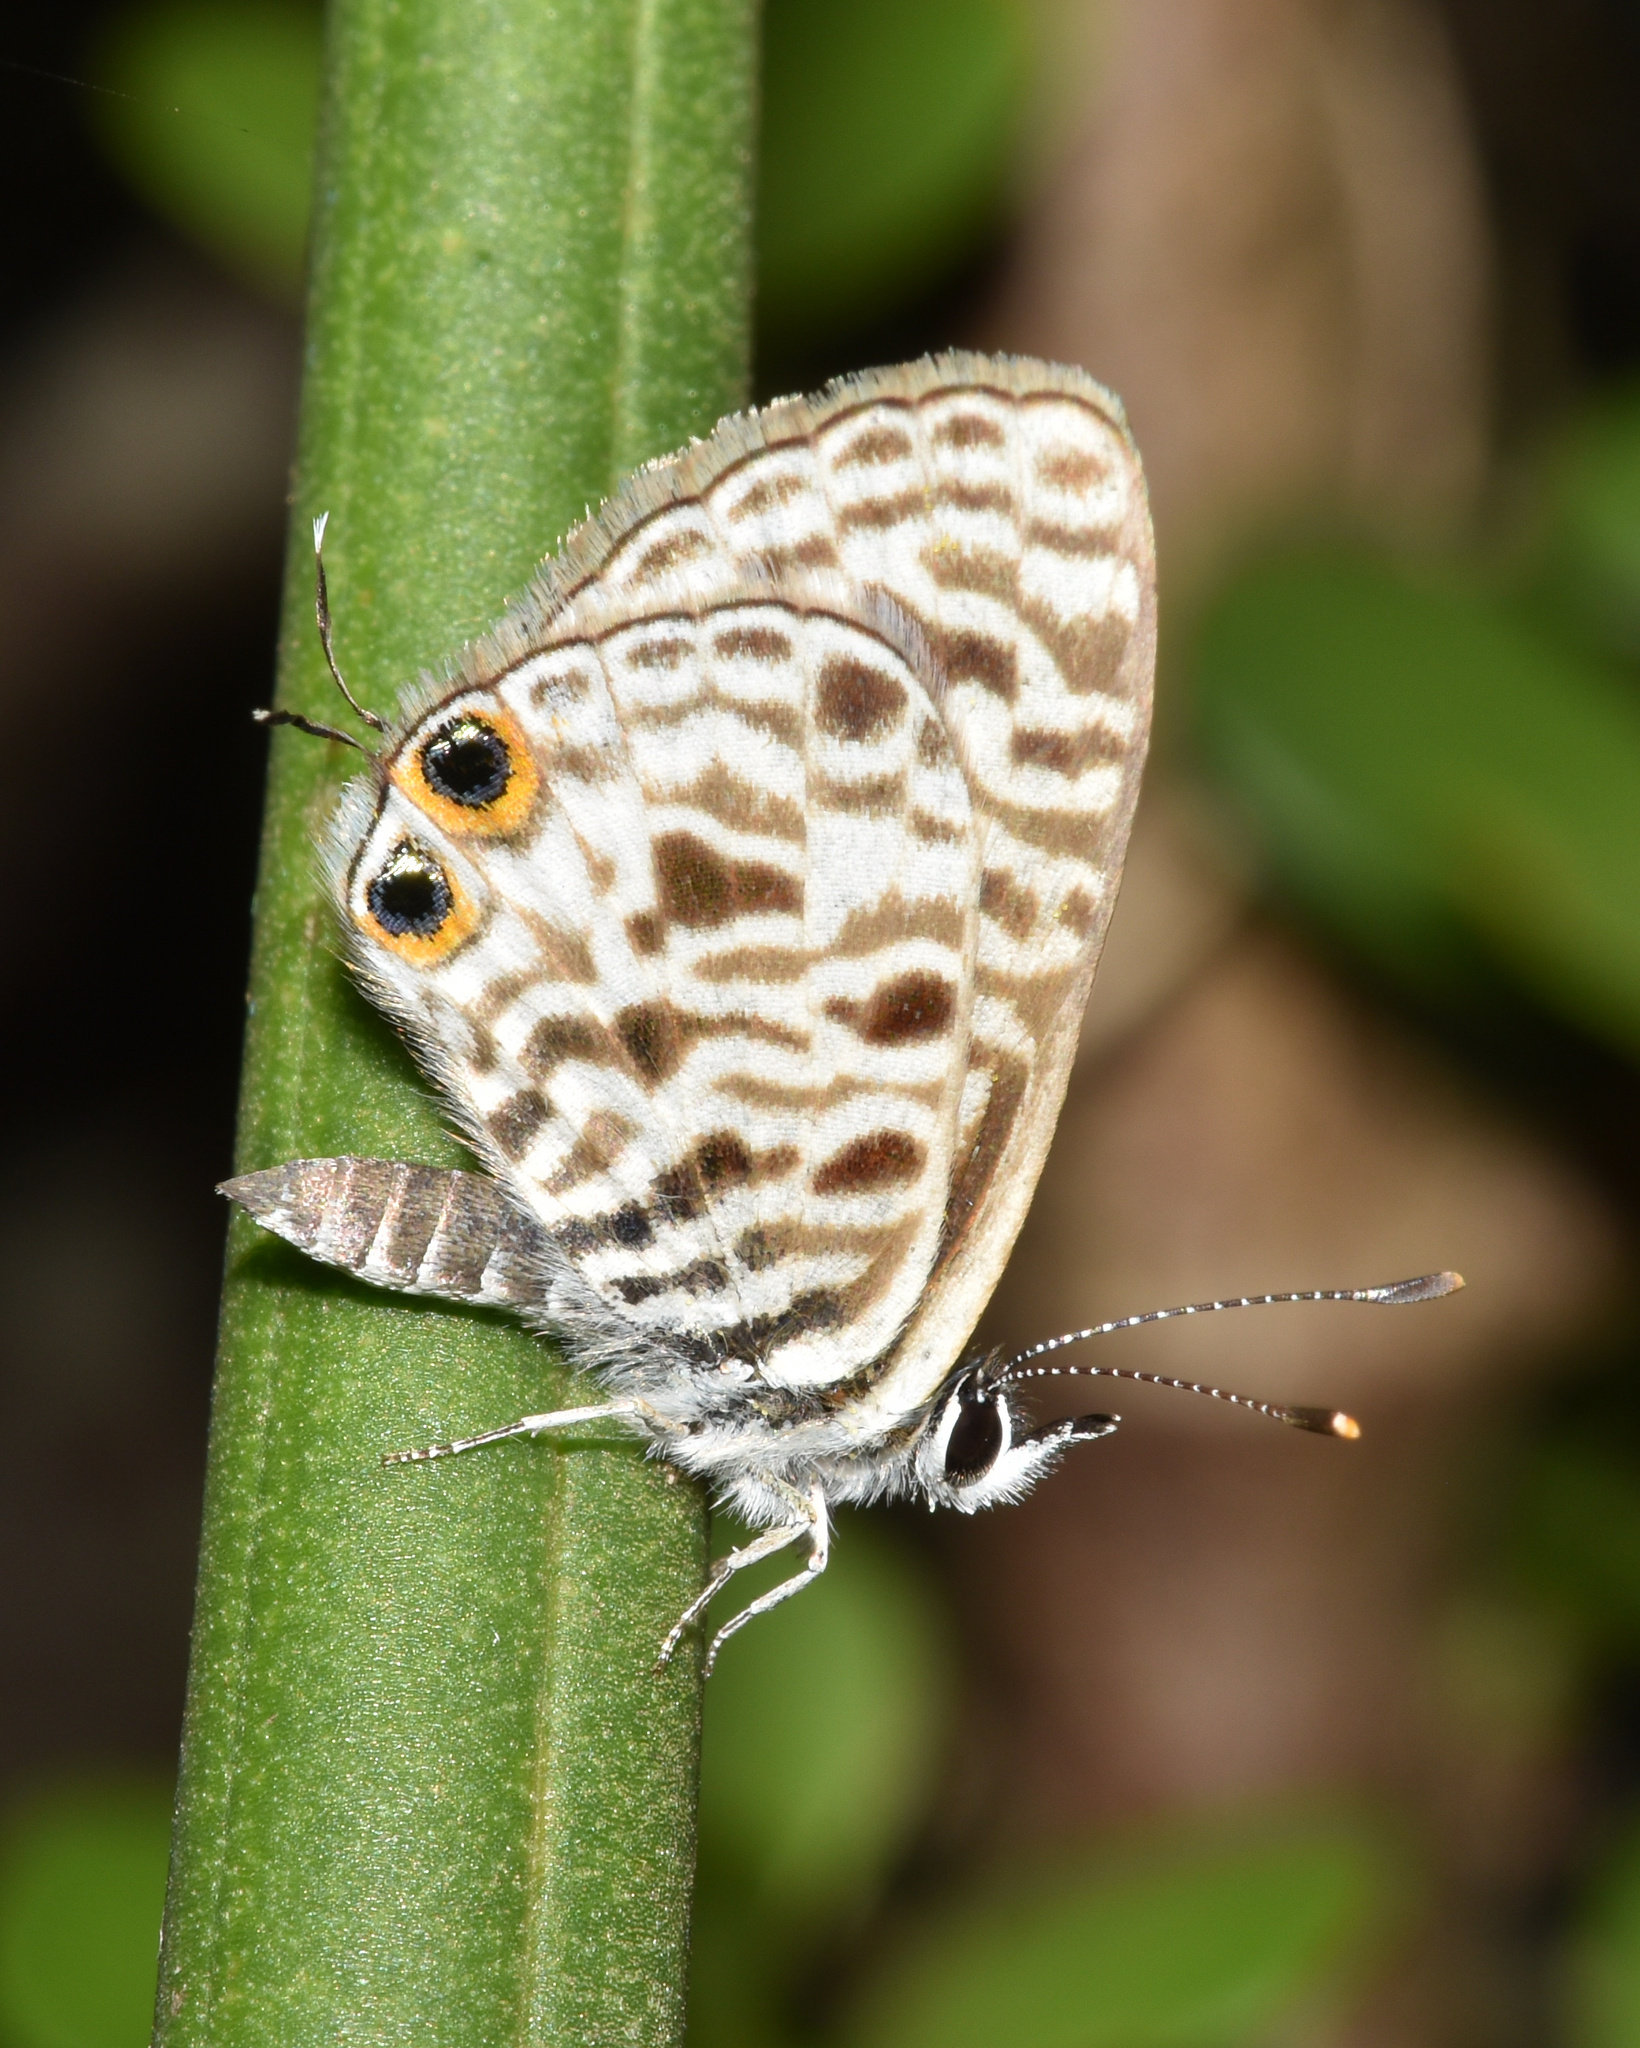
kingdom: Animalia
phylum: Arthropoda
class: Insecta
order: Lepidoptera
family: Lycaenidae
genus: Leptotes
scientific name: Leptotes
